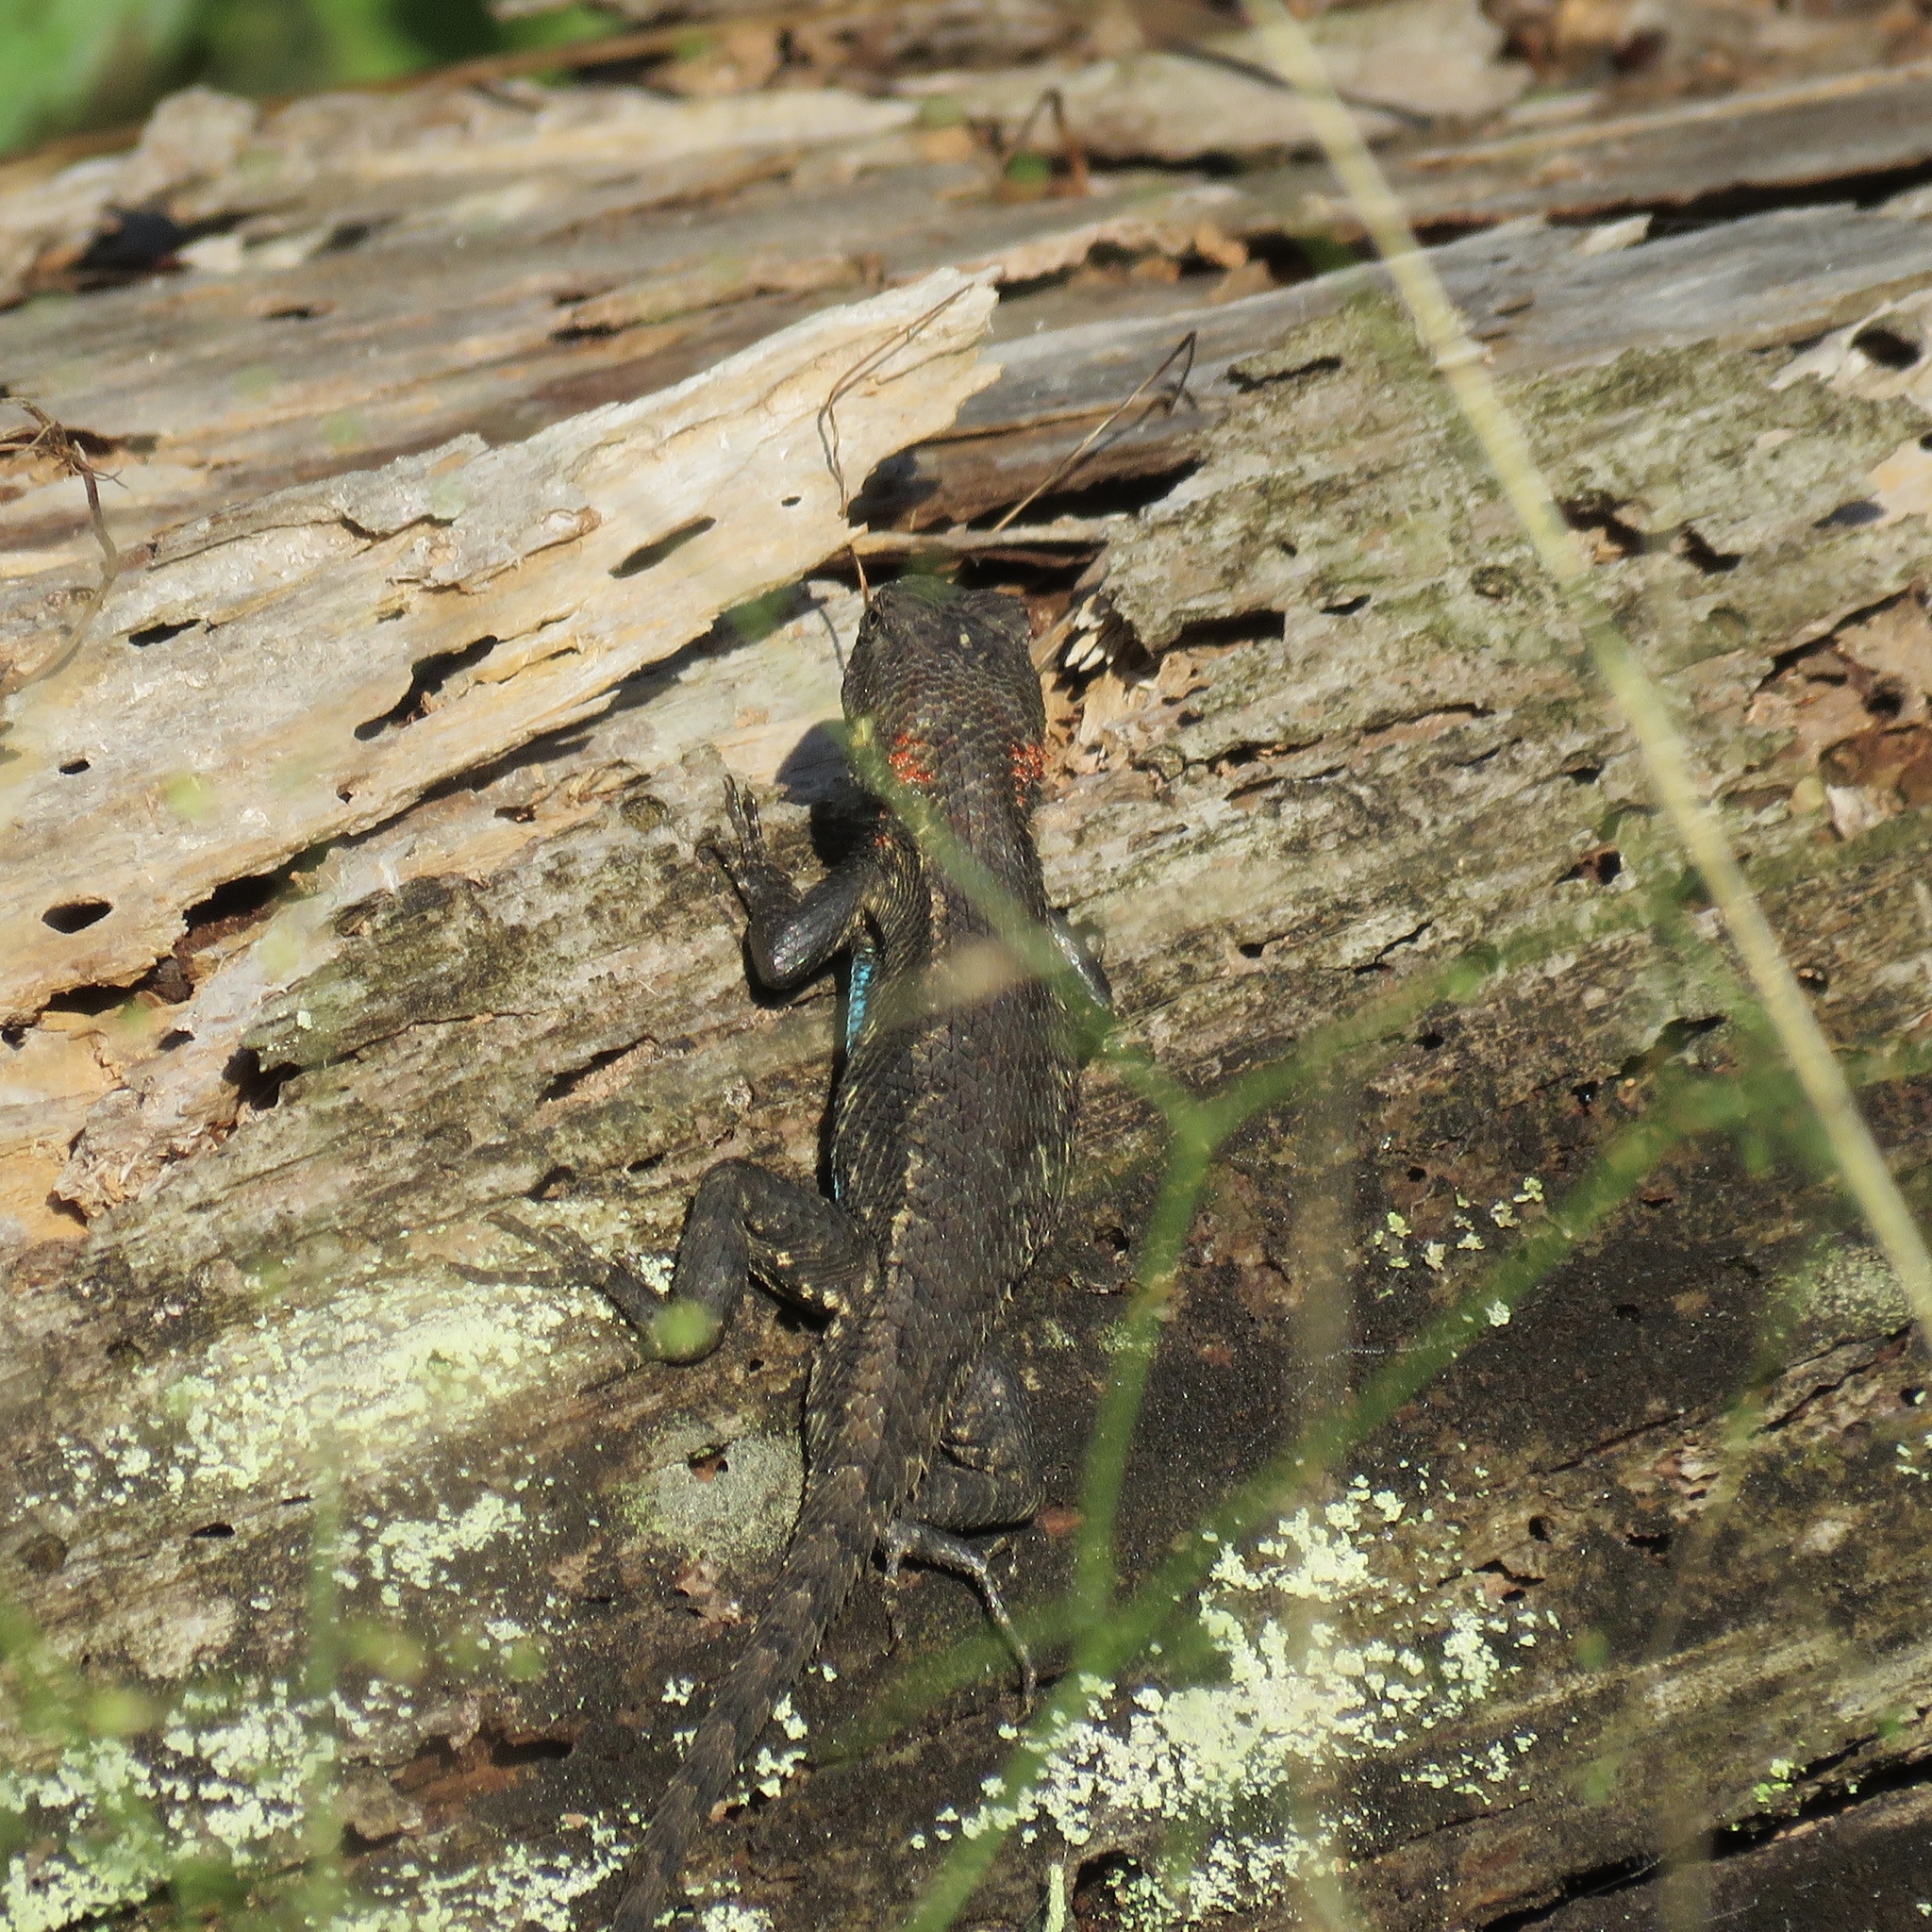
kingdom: Animalia
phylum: Chordata
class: Squamata
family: Phrynosomatidae
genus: Sceloporus
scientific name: Sceloporus consobrinus
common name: Southern prairie lizard
